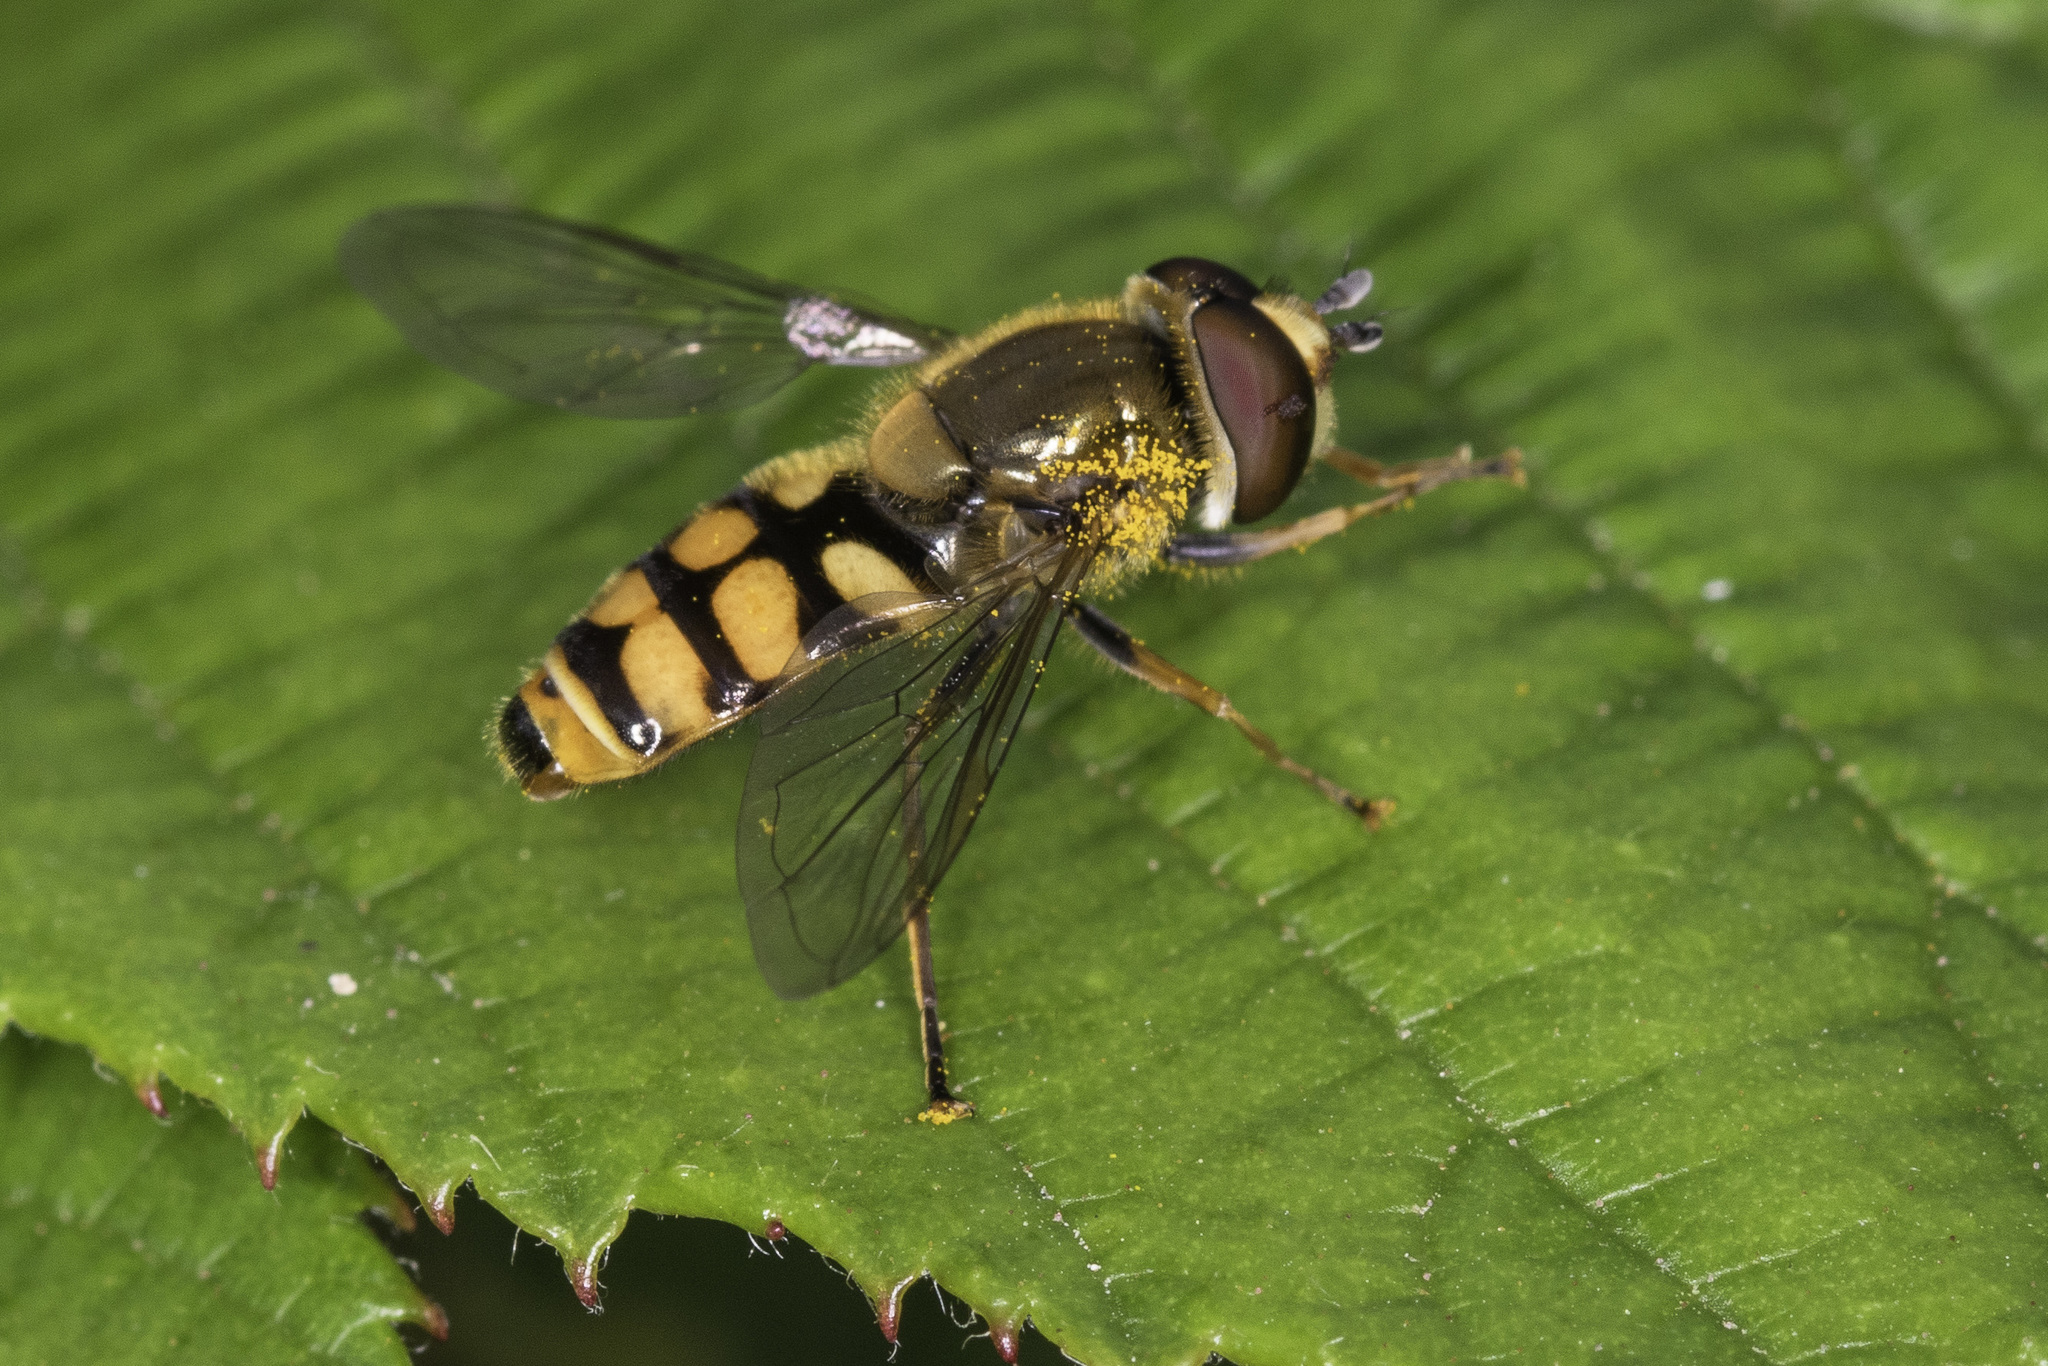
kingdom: Animalia
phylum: Arthropoda
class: Insecta
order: Diptera
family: Syrphidae
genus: Eupeodes
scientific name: Eupeodes corollae
